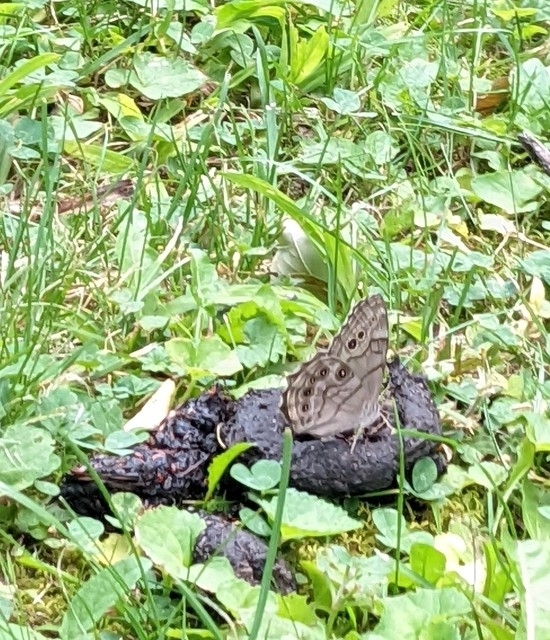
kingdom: Animalia
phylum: Arthropoda
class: Insecta
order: Lepidoptera
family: Nymphalidae
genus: Lethe
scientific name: Lethe anthedon
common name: Northern pearly-eye
